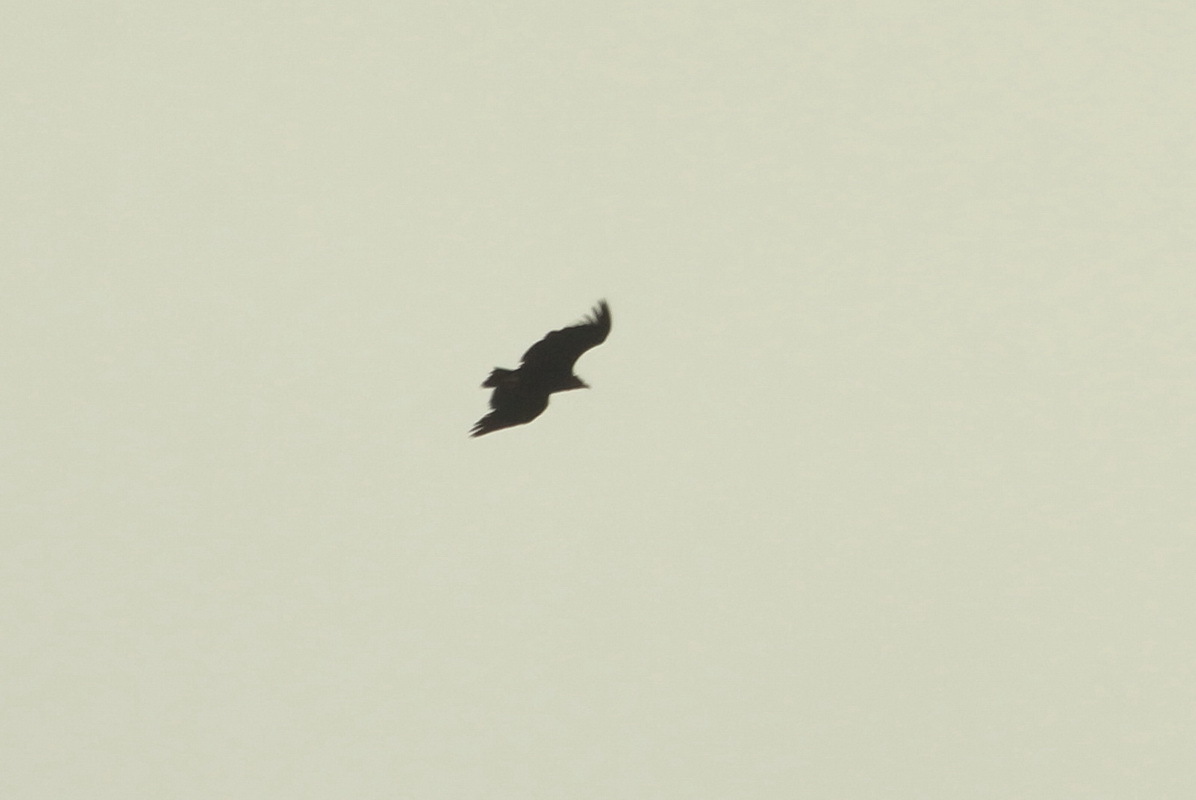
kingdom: Animalia
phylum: Chordata
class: Aves
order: Accipitriformes
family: Accipitridae
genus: Aegypius
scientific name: Aegypius monachus
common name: Cinereous vulture
